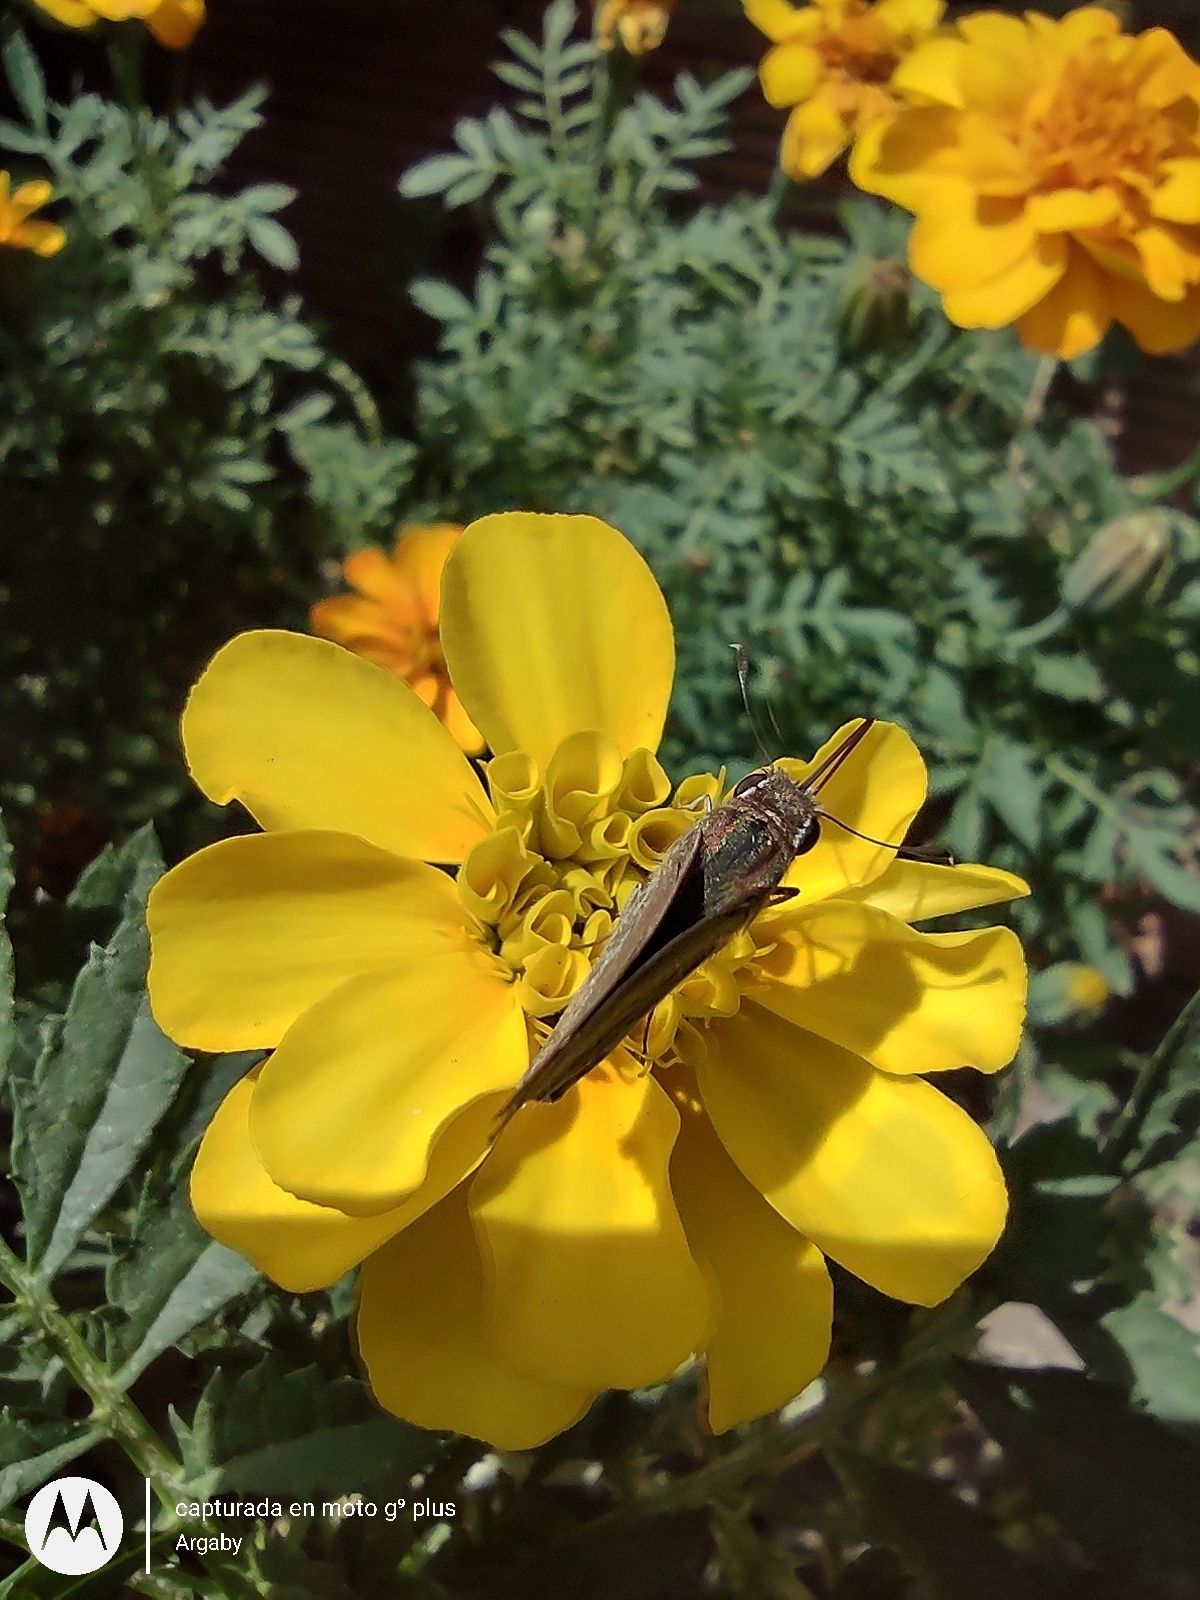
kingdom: Animalia
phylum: Arthropoda
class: Insecta
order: Lepidoptera
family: Hesperiidae
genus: Lerodea
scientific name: Lerodea eufala
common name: Eufala skipper
